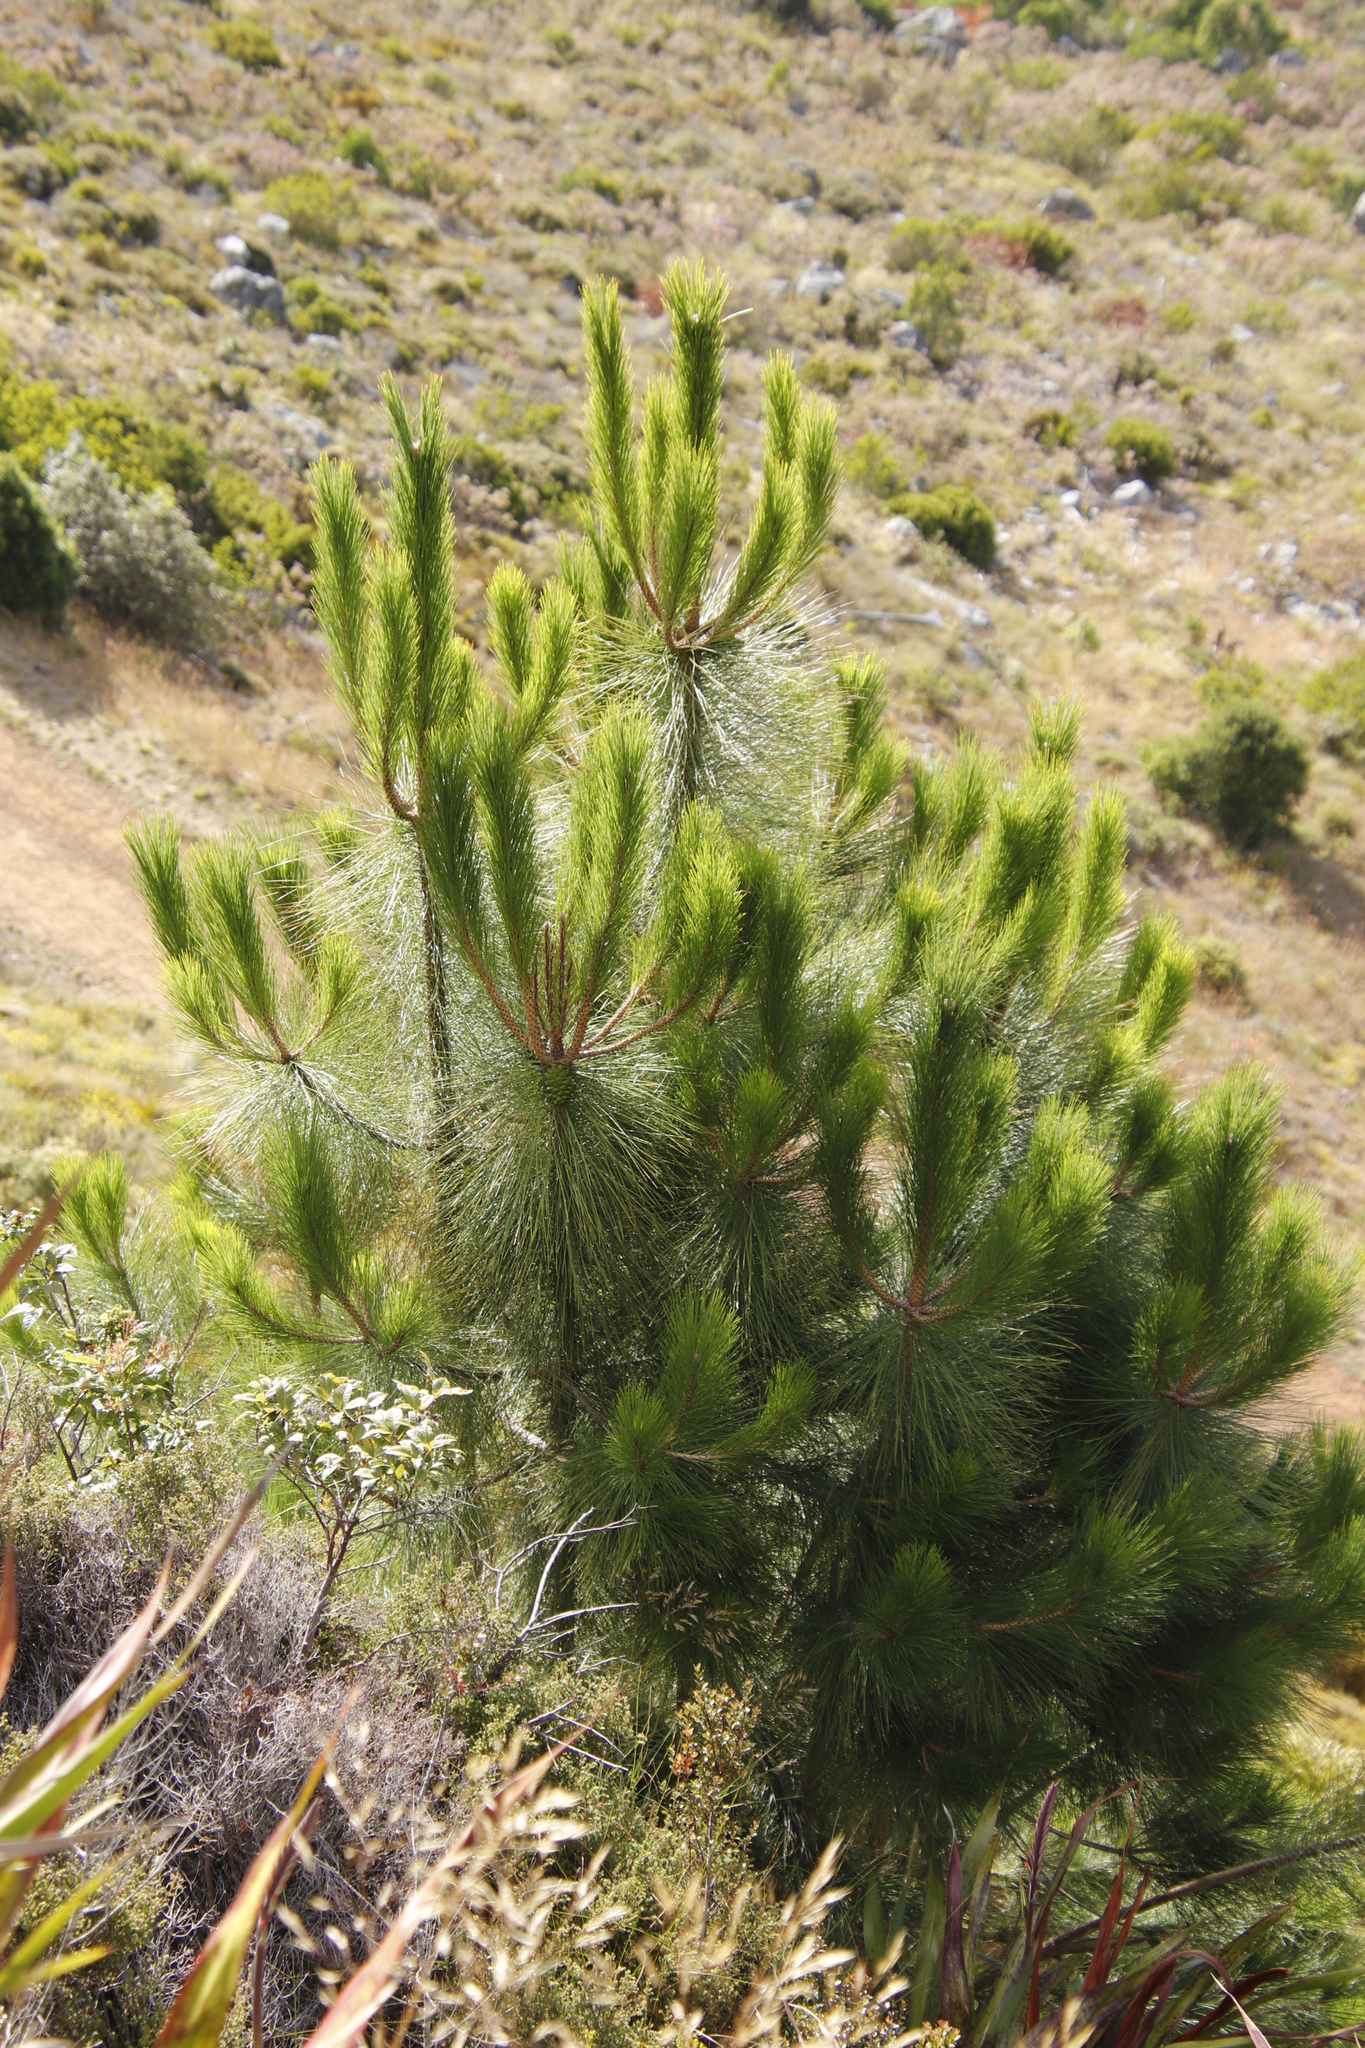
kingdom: Plantae
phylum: Tracheophyta
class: Pinopsida
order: Pinales
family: Pinaceae
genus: Pinus
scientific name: Pinus canariensis
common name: Canary islands pine
